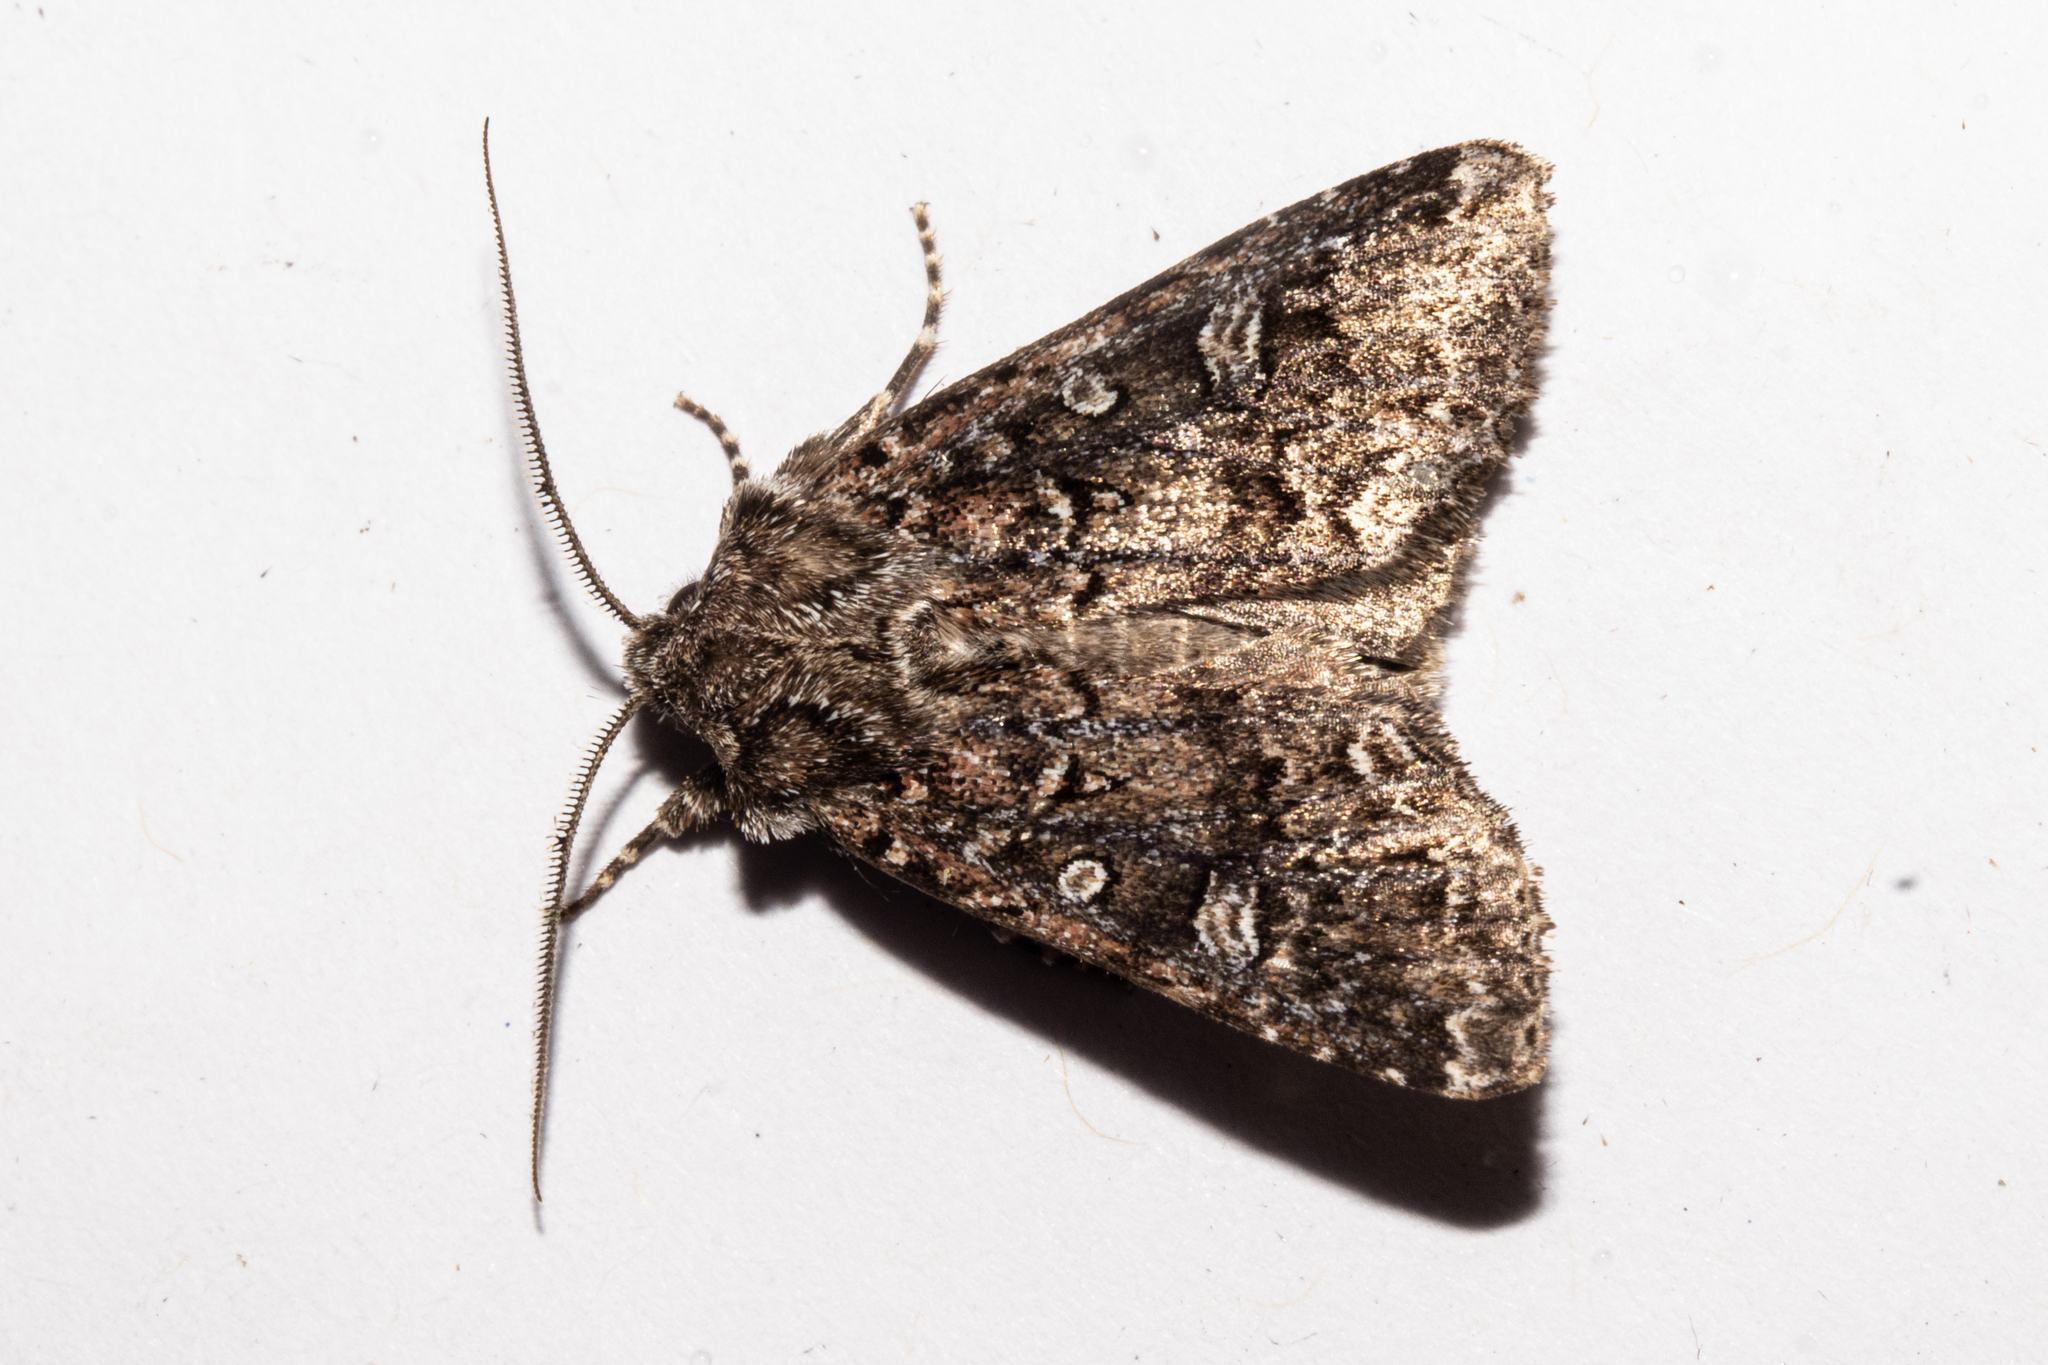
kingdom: Animalia
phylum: Arthropoda
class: Insecta
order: Lepidoptera
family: Noctuidae
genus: Ichneutica
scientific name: Ichneutica lithias
